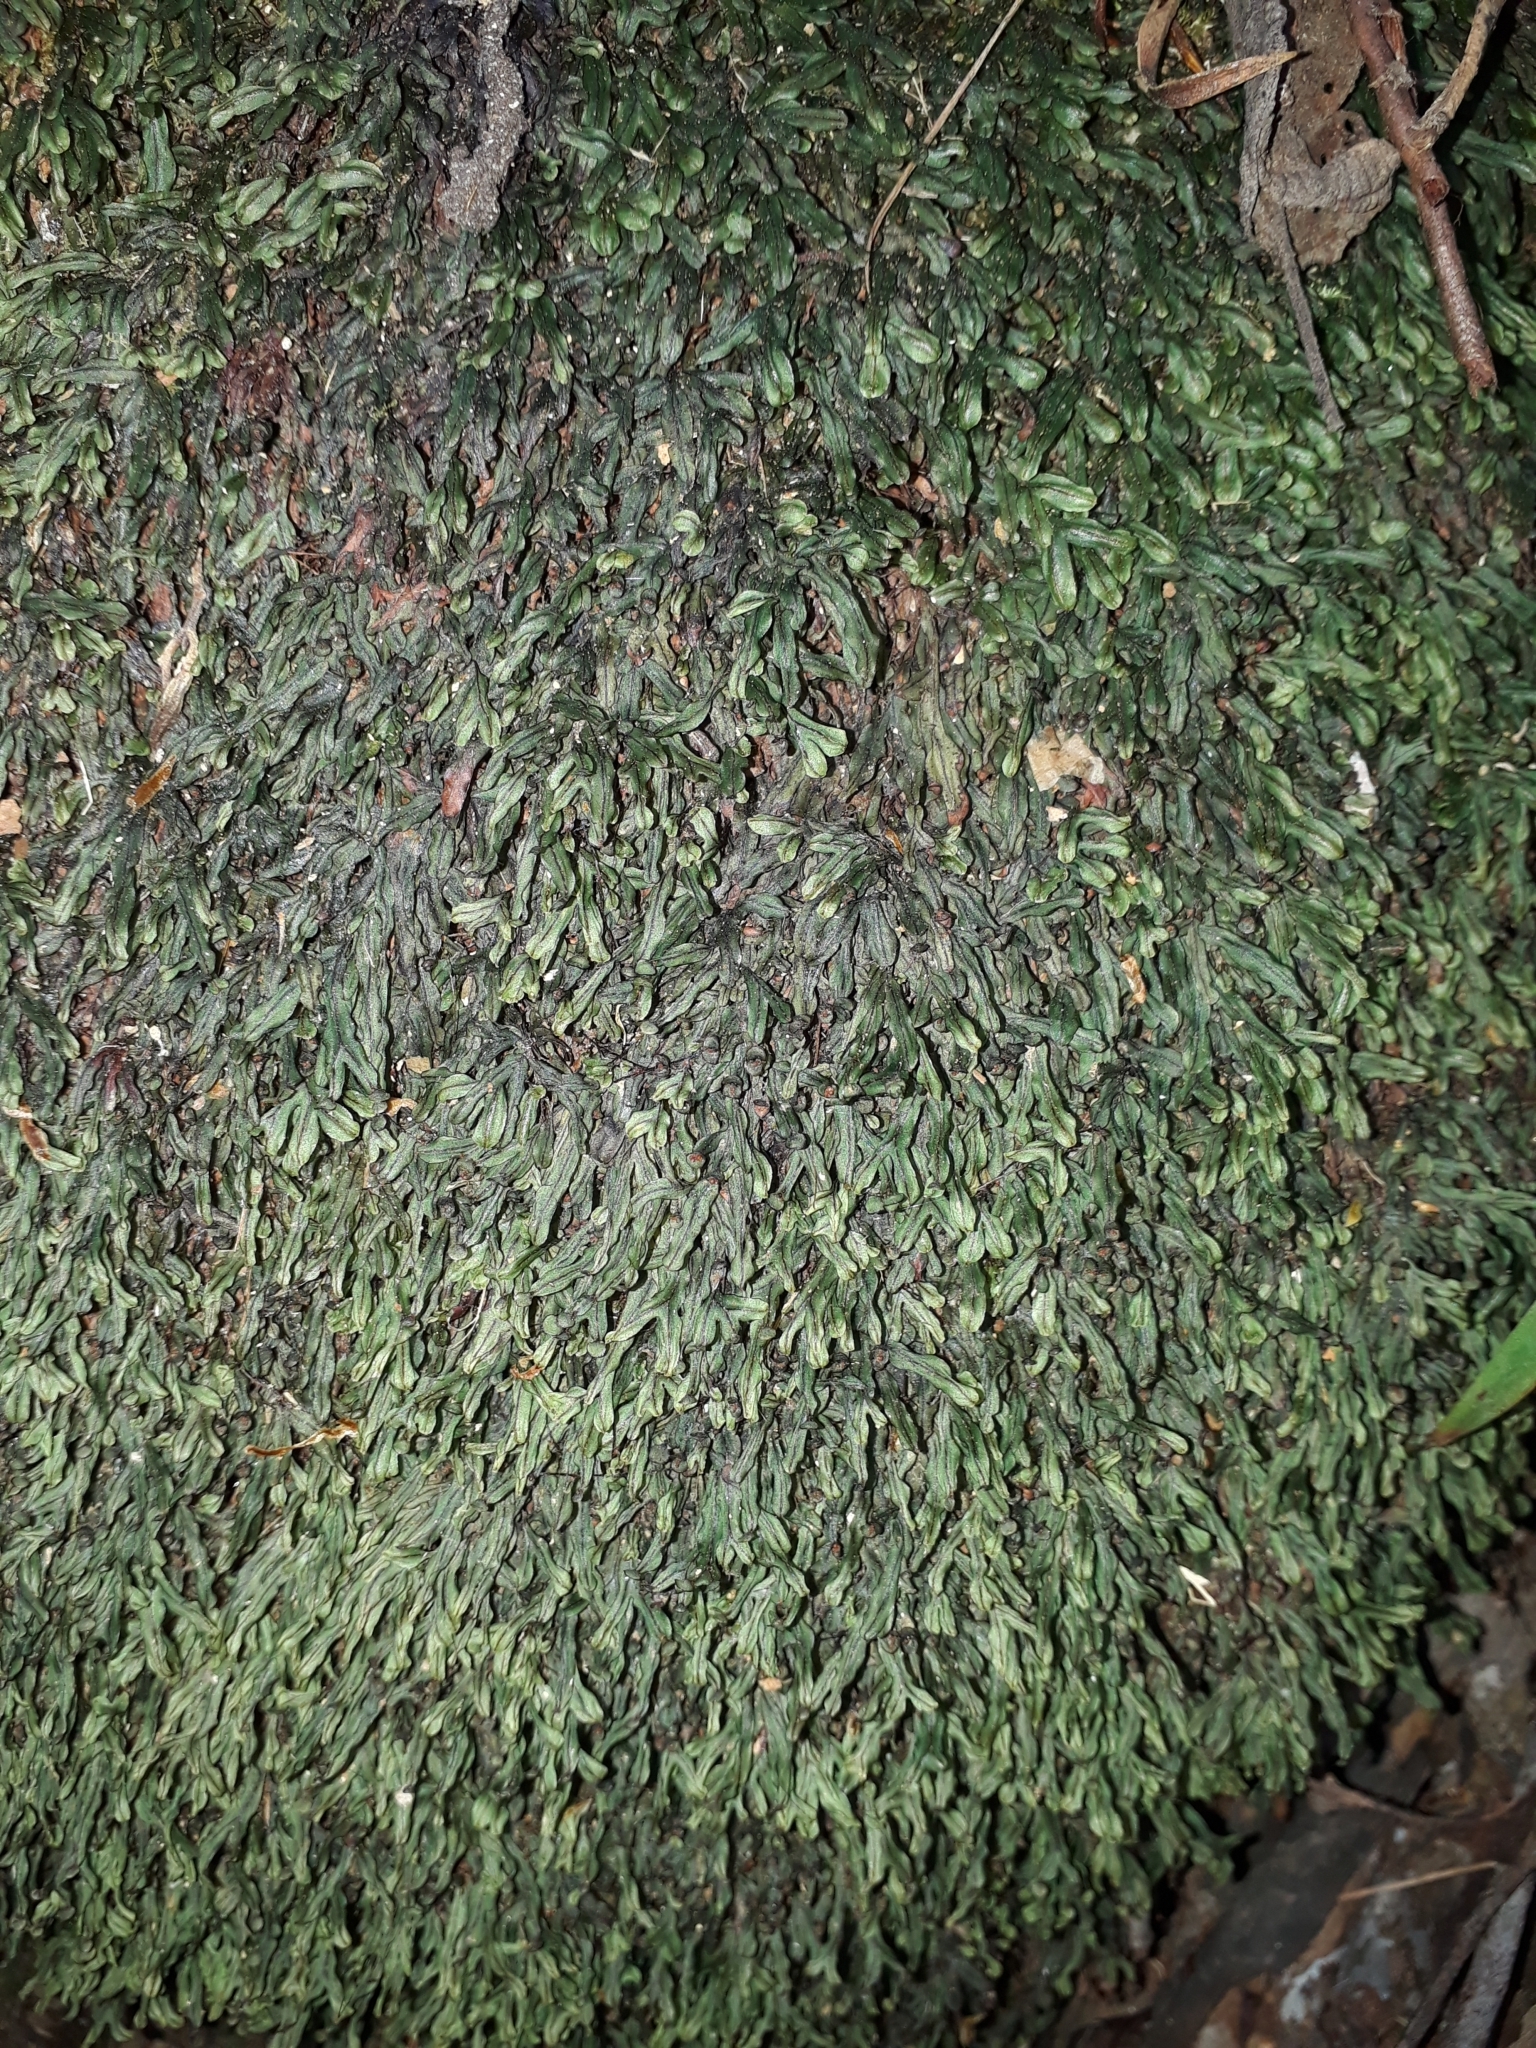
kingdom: Plantae
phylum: Tracheophyta
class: Polypodiopsida
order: Hymenophyllales
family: Hymenophyllaceae
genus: Hymenophyllum
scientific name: Hymenophyllum marginatum
